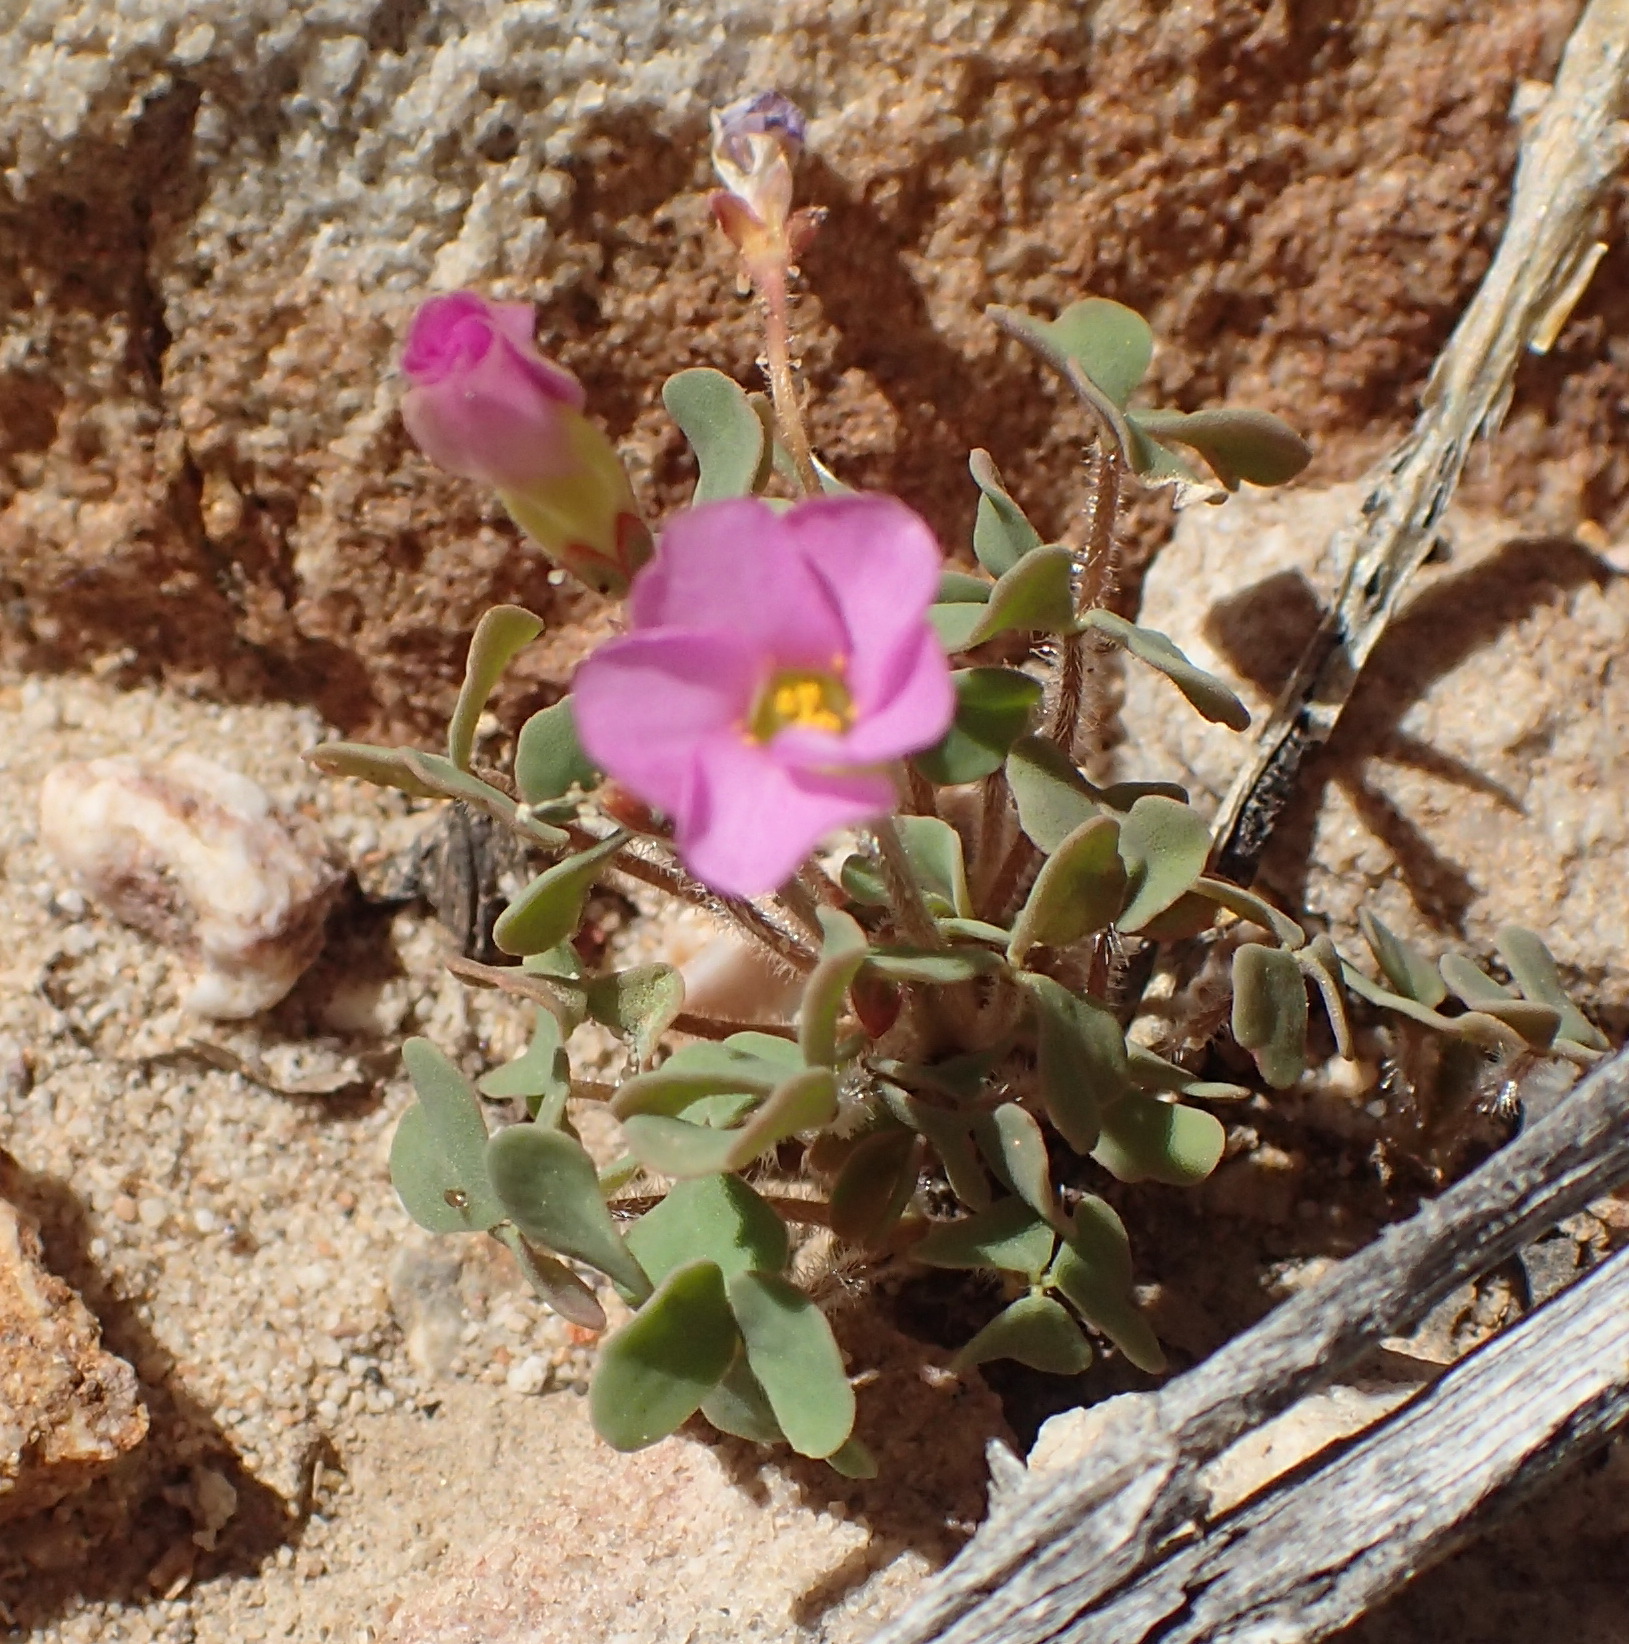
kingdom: Plantae
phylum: Tracheophyta
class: Magnoliopsida
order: Oxalidales
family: Oxalidaceae
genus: Oxalis
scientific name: Oxalis punctata
